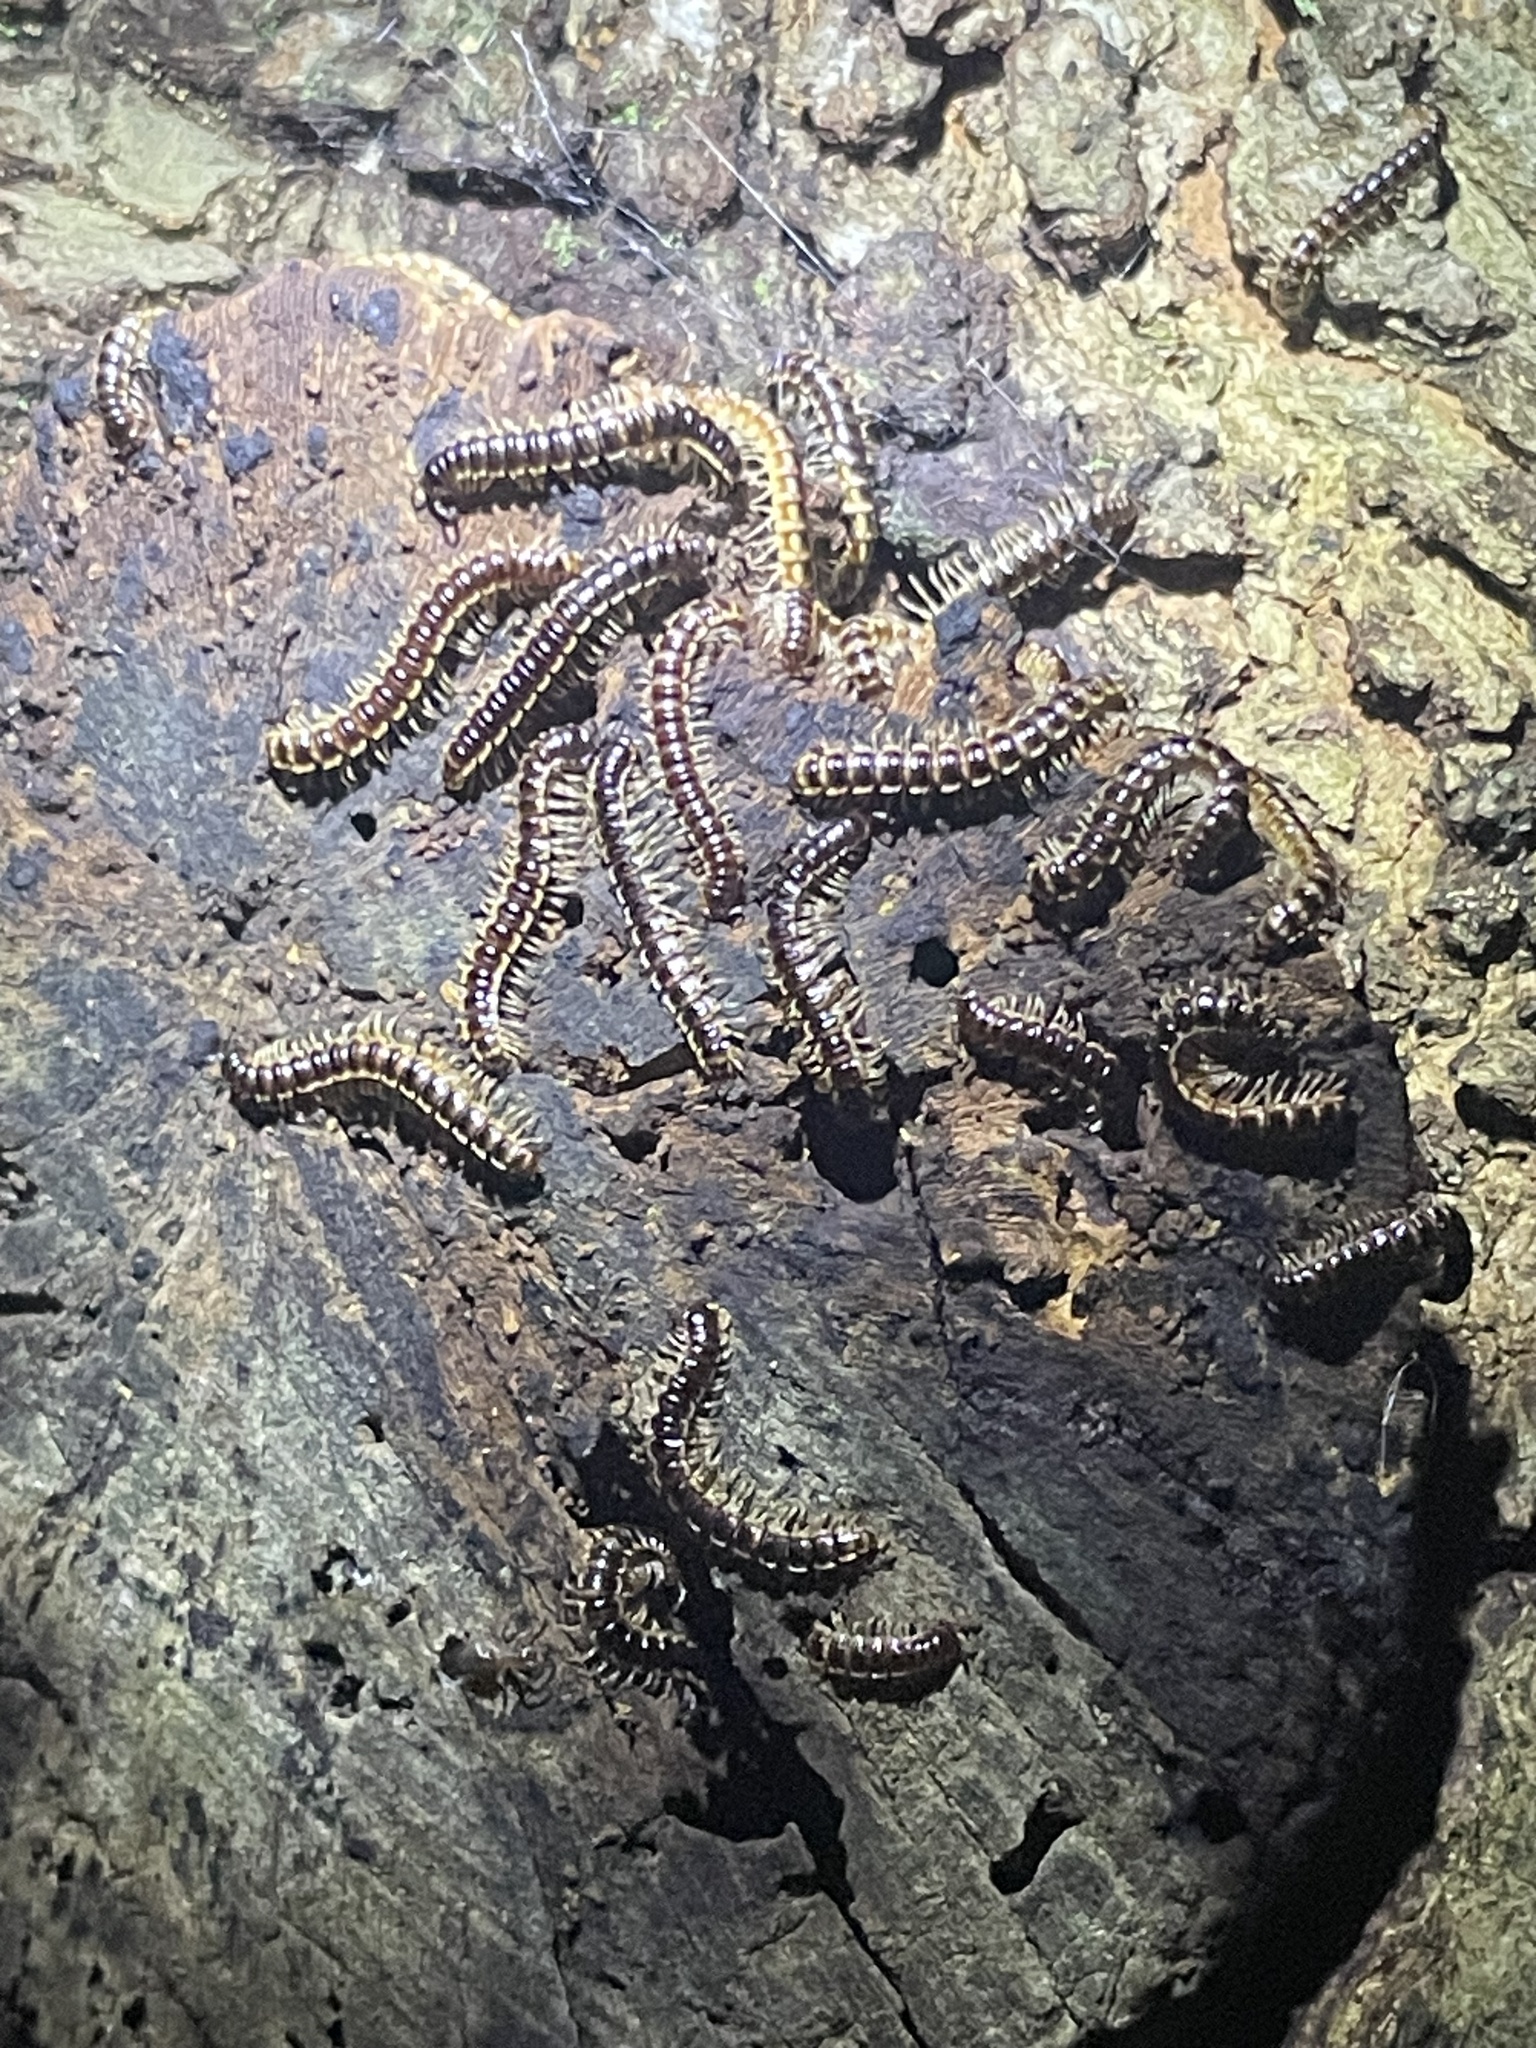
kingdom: Animalia
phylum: Arthropoda
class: Diplopoda
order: Polydesmida
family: Paradoxosomatidae
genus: Oxidus
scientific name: Oxidus gracilis
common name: Greenhouse millipede
